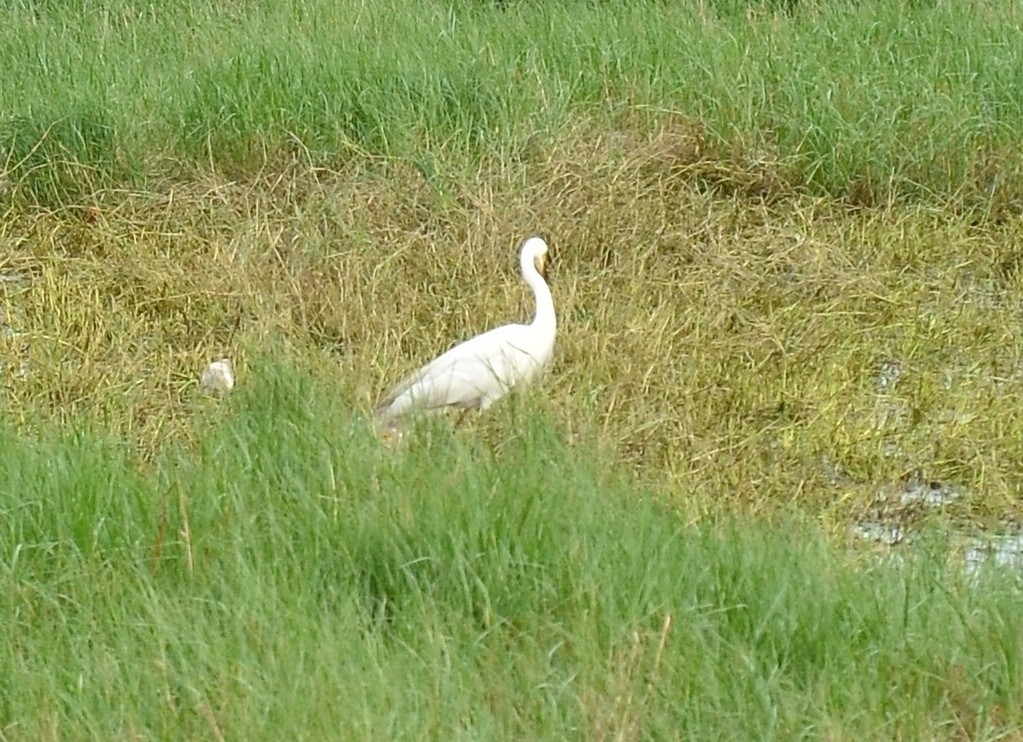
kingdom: Animalia
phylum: Chordata
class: Aves
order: Pelecaniformes
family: Ardeidae
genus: Egretta
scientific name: Egretta intermedia
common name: Intermediate egret
